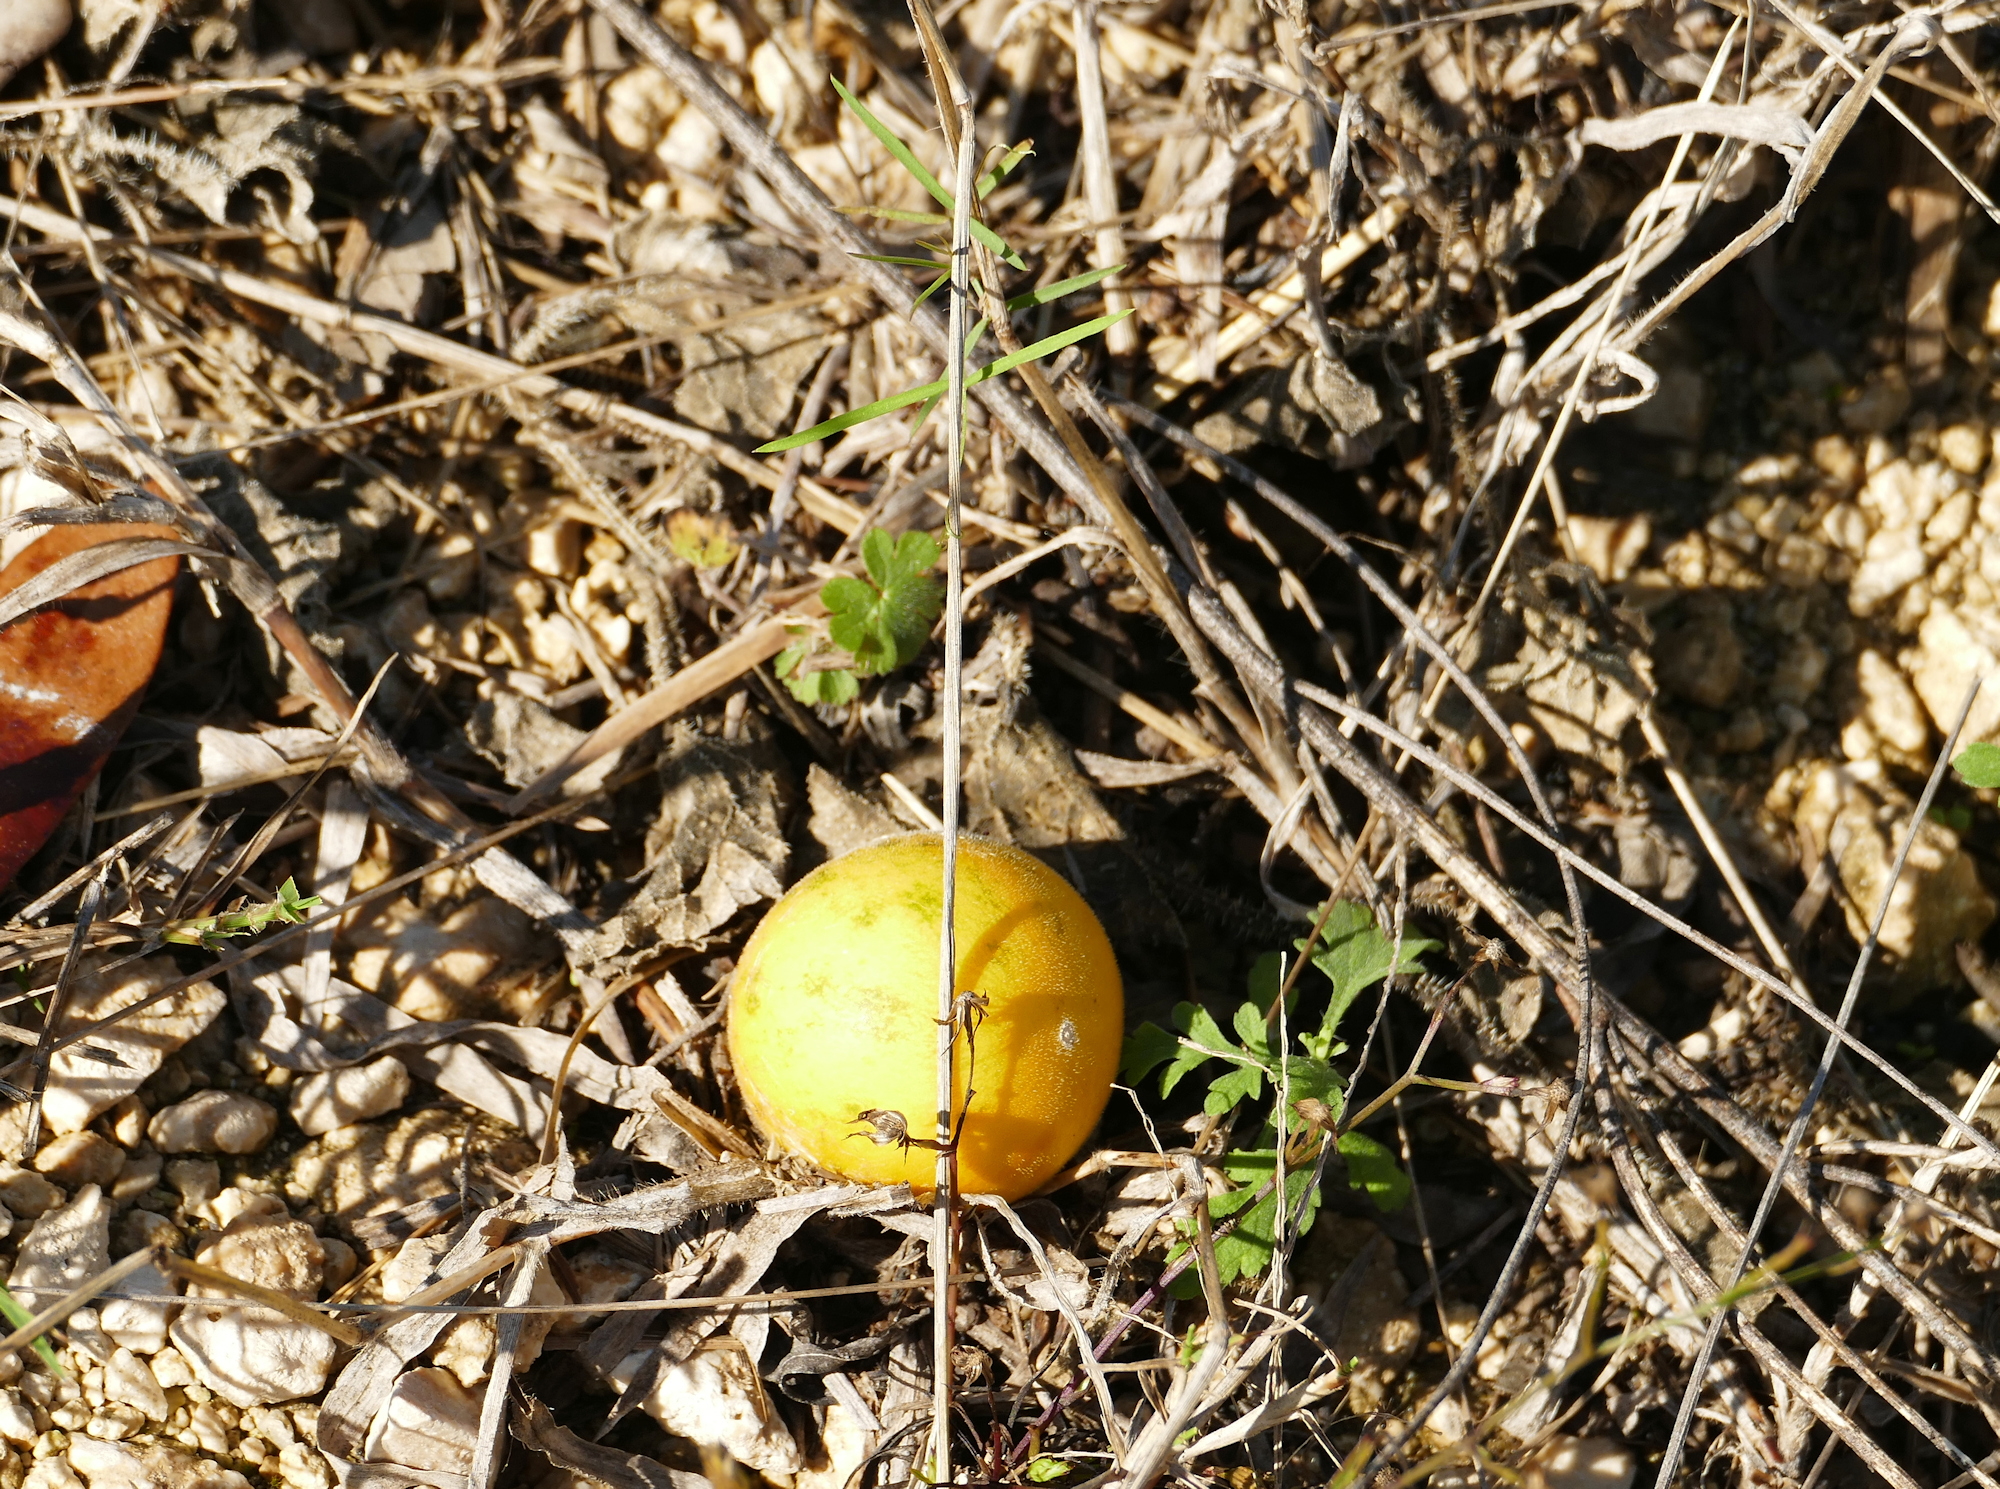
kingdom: Plantae
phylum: Tracheophyta
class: Magnoliopsida
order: Cucurbitales
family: Cucurbitaceae
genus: Cucumis
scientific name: Cucumis melo
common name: Melon
